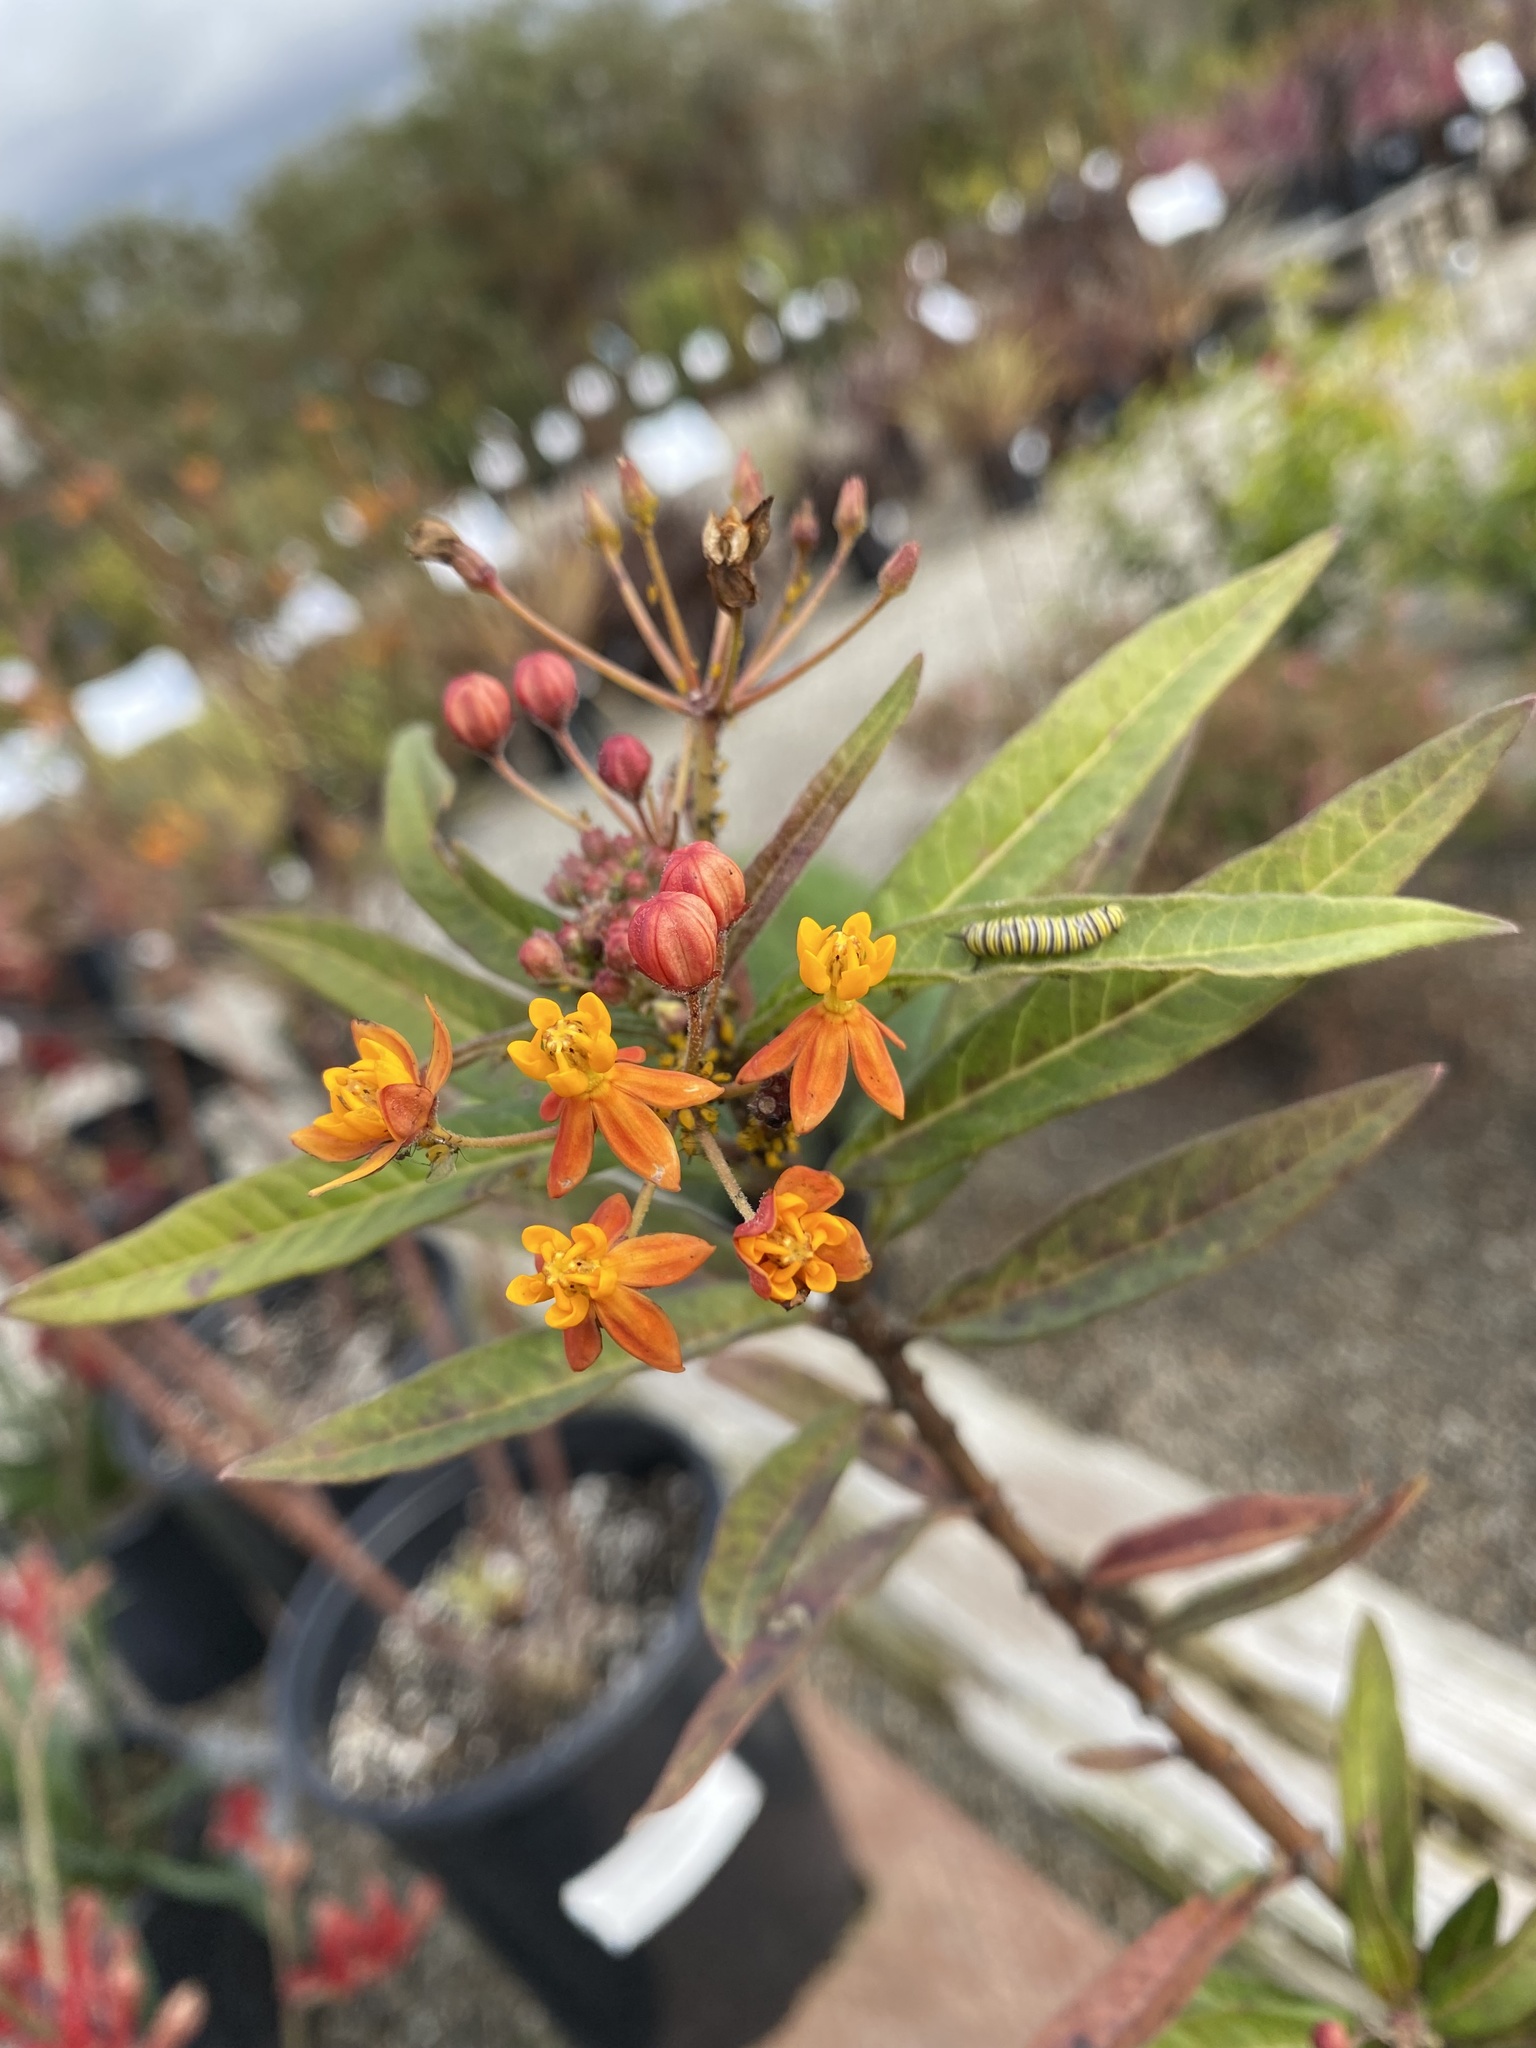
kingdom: Animalia
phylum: Arthropoda
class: Insecta
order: Lepidoptera
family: Nymphalidae
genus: Danaus
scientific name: Danaus plexippus
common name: Monarch
